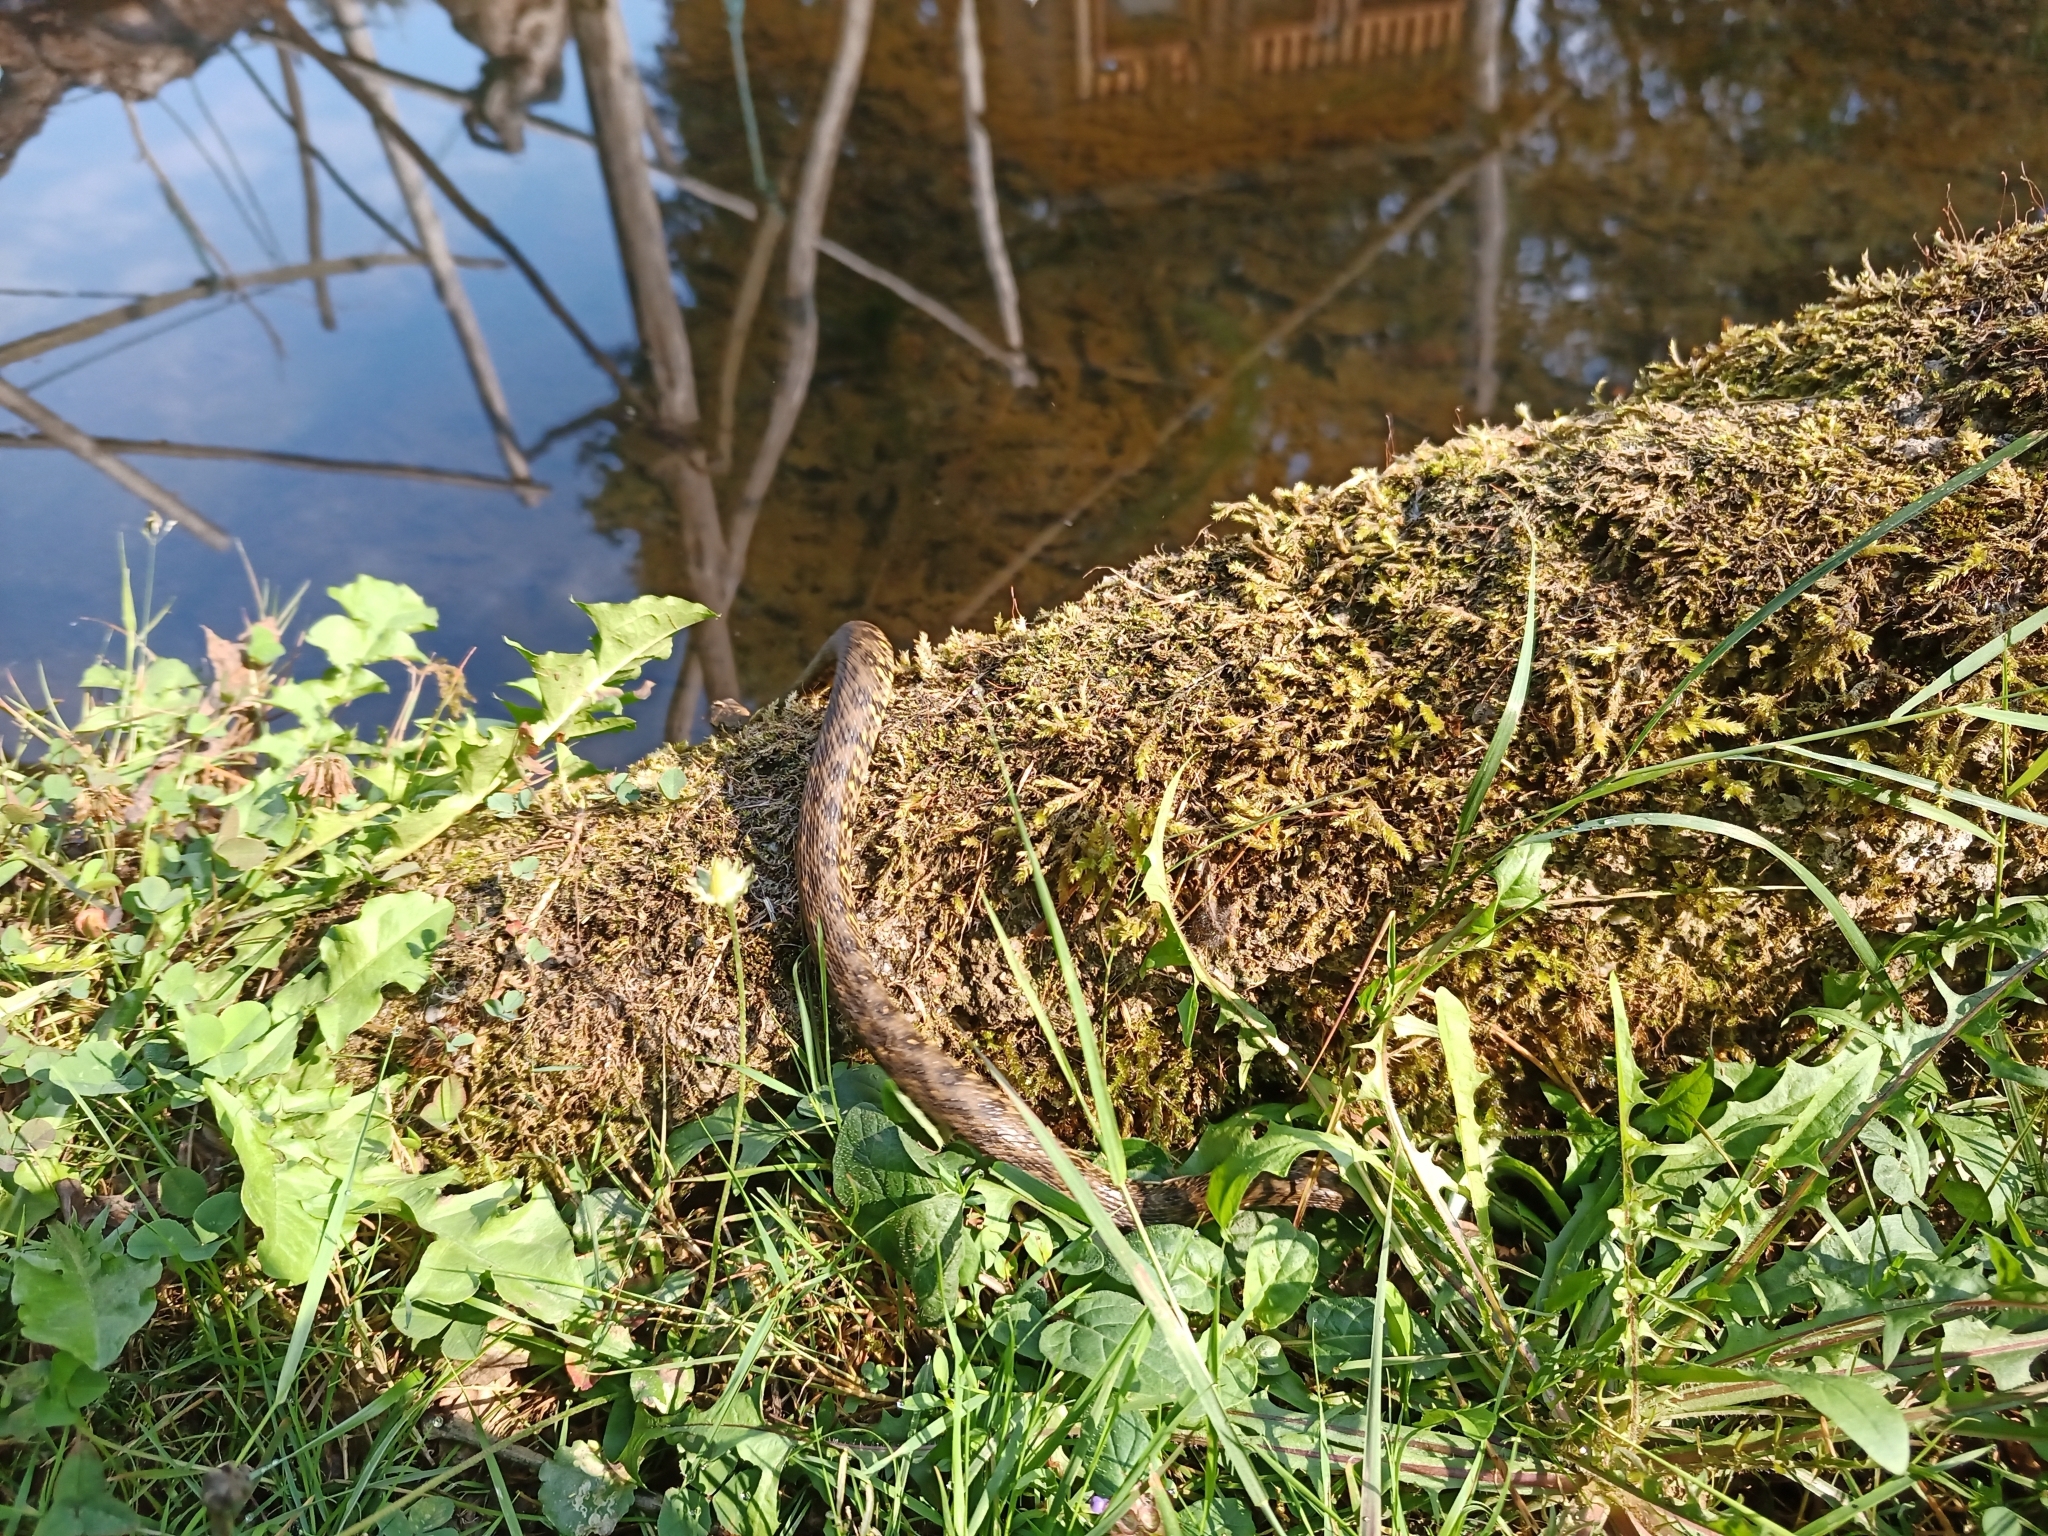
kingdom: Animalia
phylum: Chordata
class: Squamata
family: Colubridae
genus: Natrix
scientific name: Natrix maura
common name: Viperine water snake
